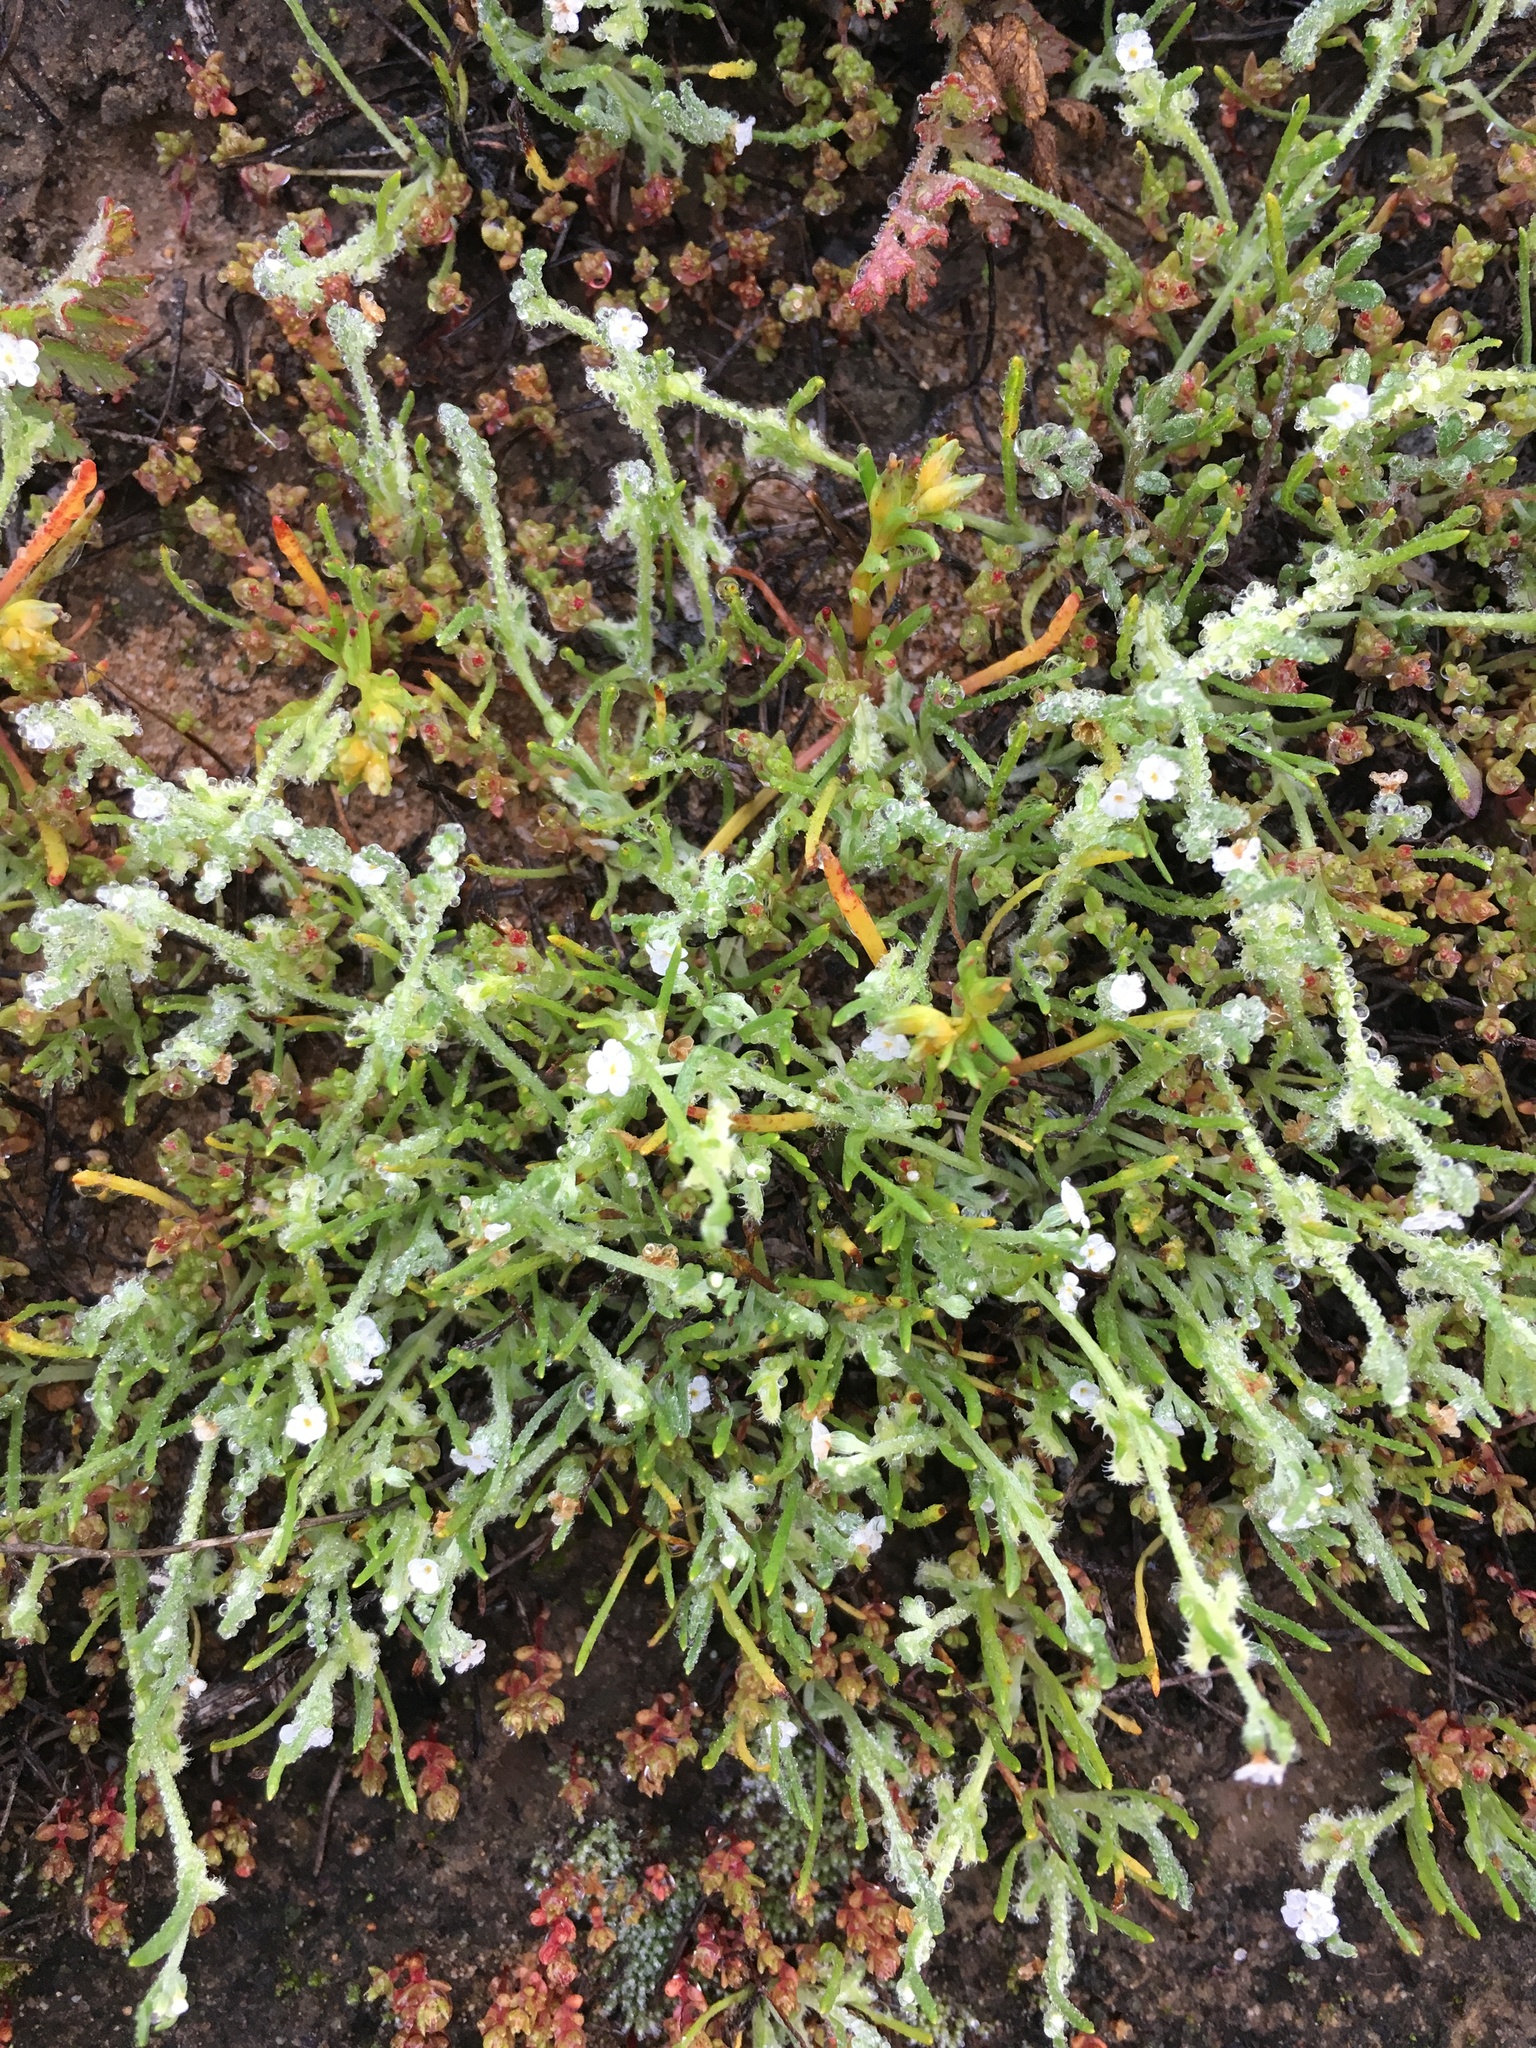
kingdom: Plantae
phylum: Tracheophyta
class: Magnoliopsida
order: Boraginales
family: Boraginaceae
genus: Pectocarya
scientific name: Pectocarya linearis
